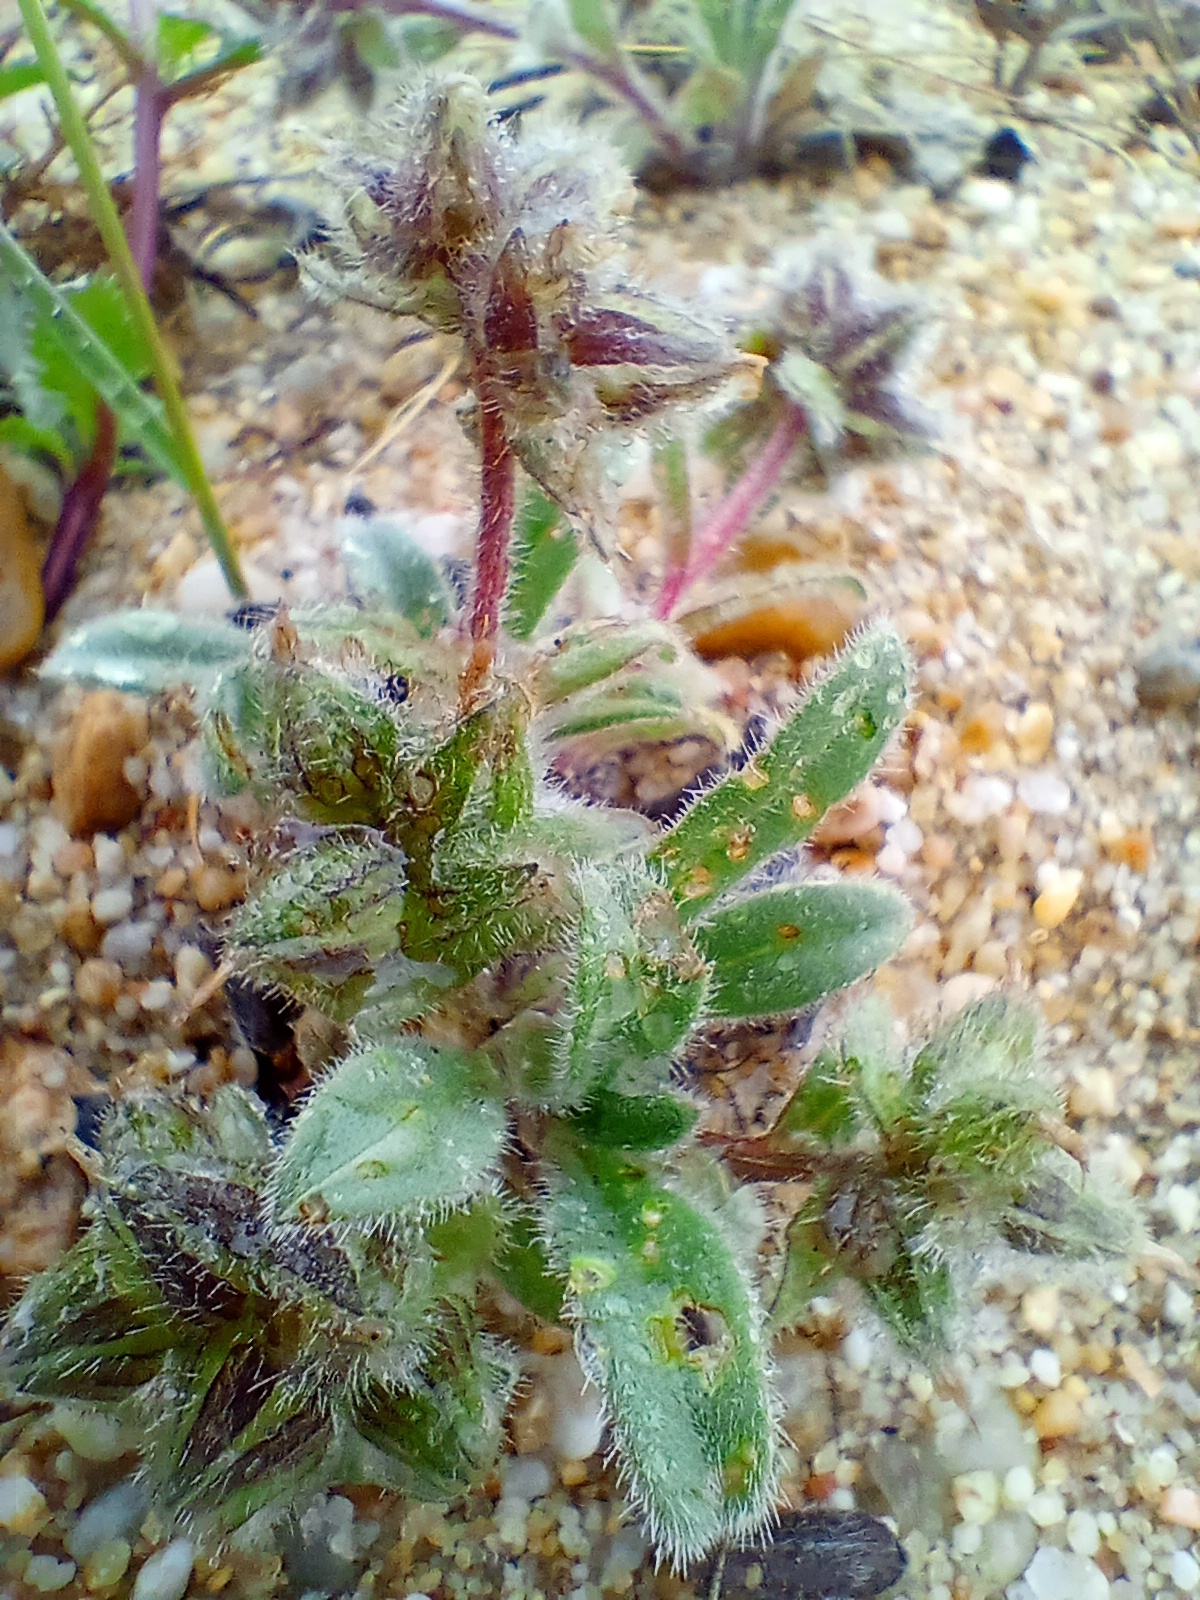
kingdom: Plantae
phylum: Tracheophyta
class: Magnoliopsida
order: Lamiales
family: Scrophulariaceae
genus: Scrophularia
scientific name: Scrophularia incisa
